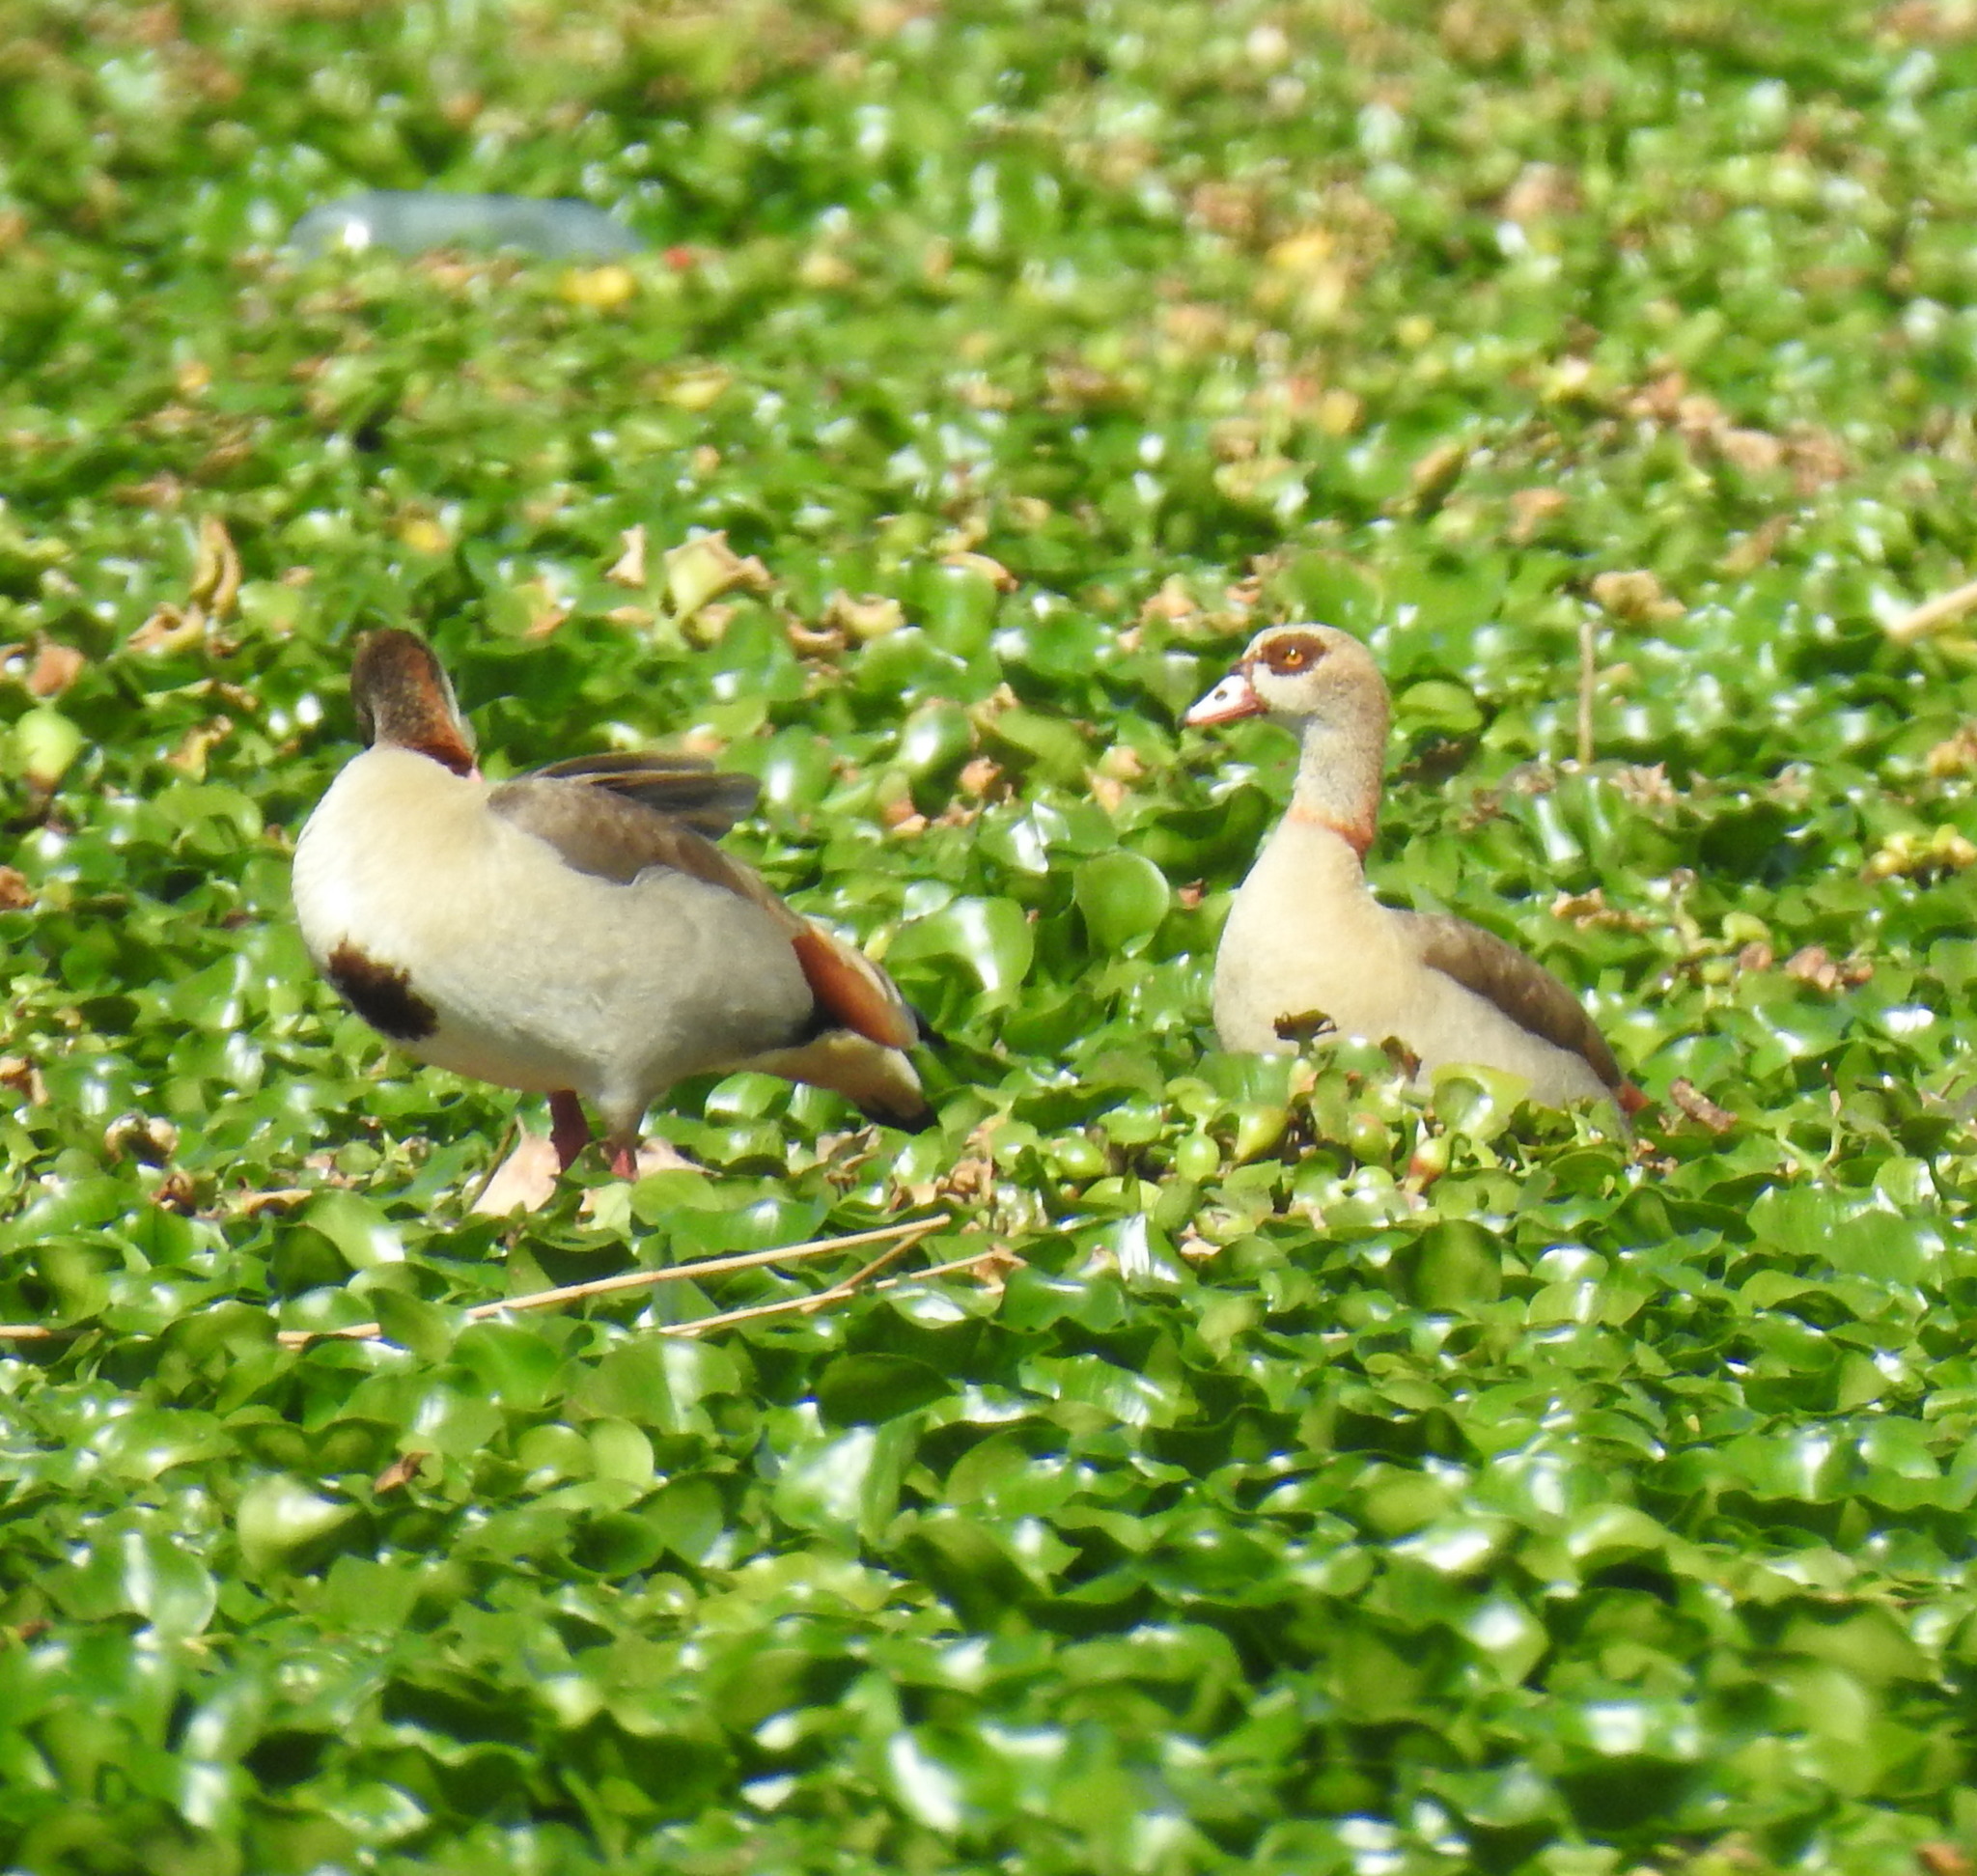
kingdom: Animalia
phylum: Chordata
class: Aves
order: Anseriformes
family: Anatidae
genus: Alopochen
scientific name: Alopochen aegyptiaca
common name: Egyptian goose
